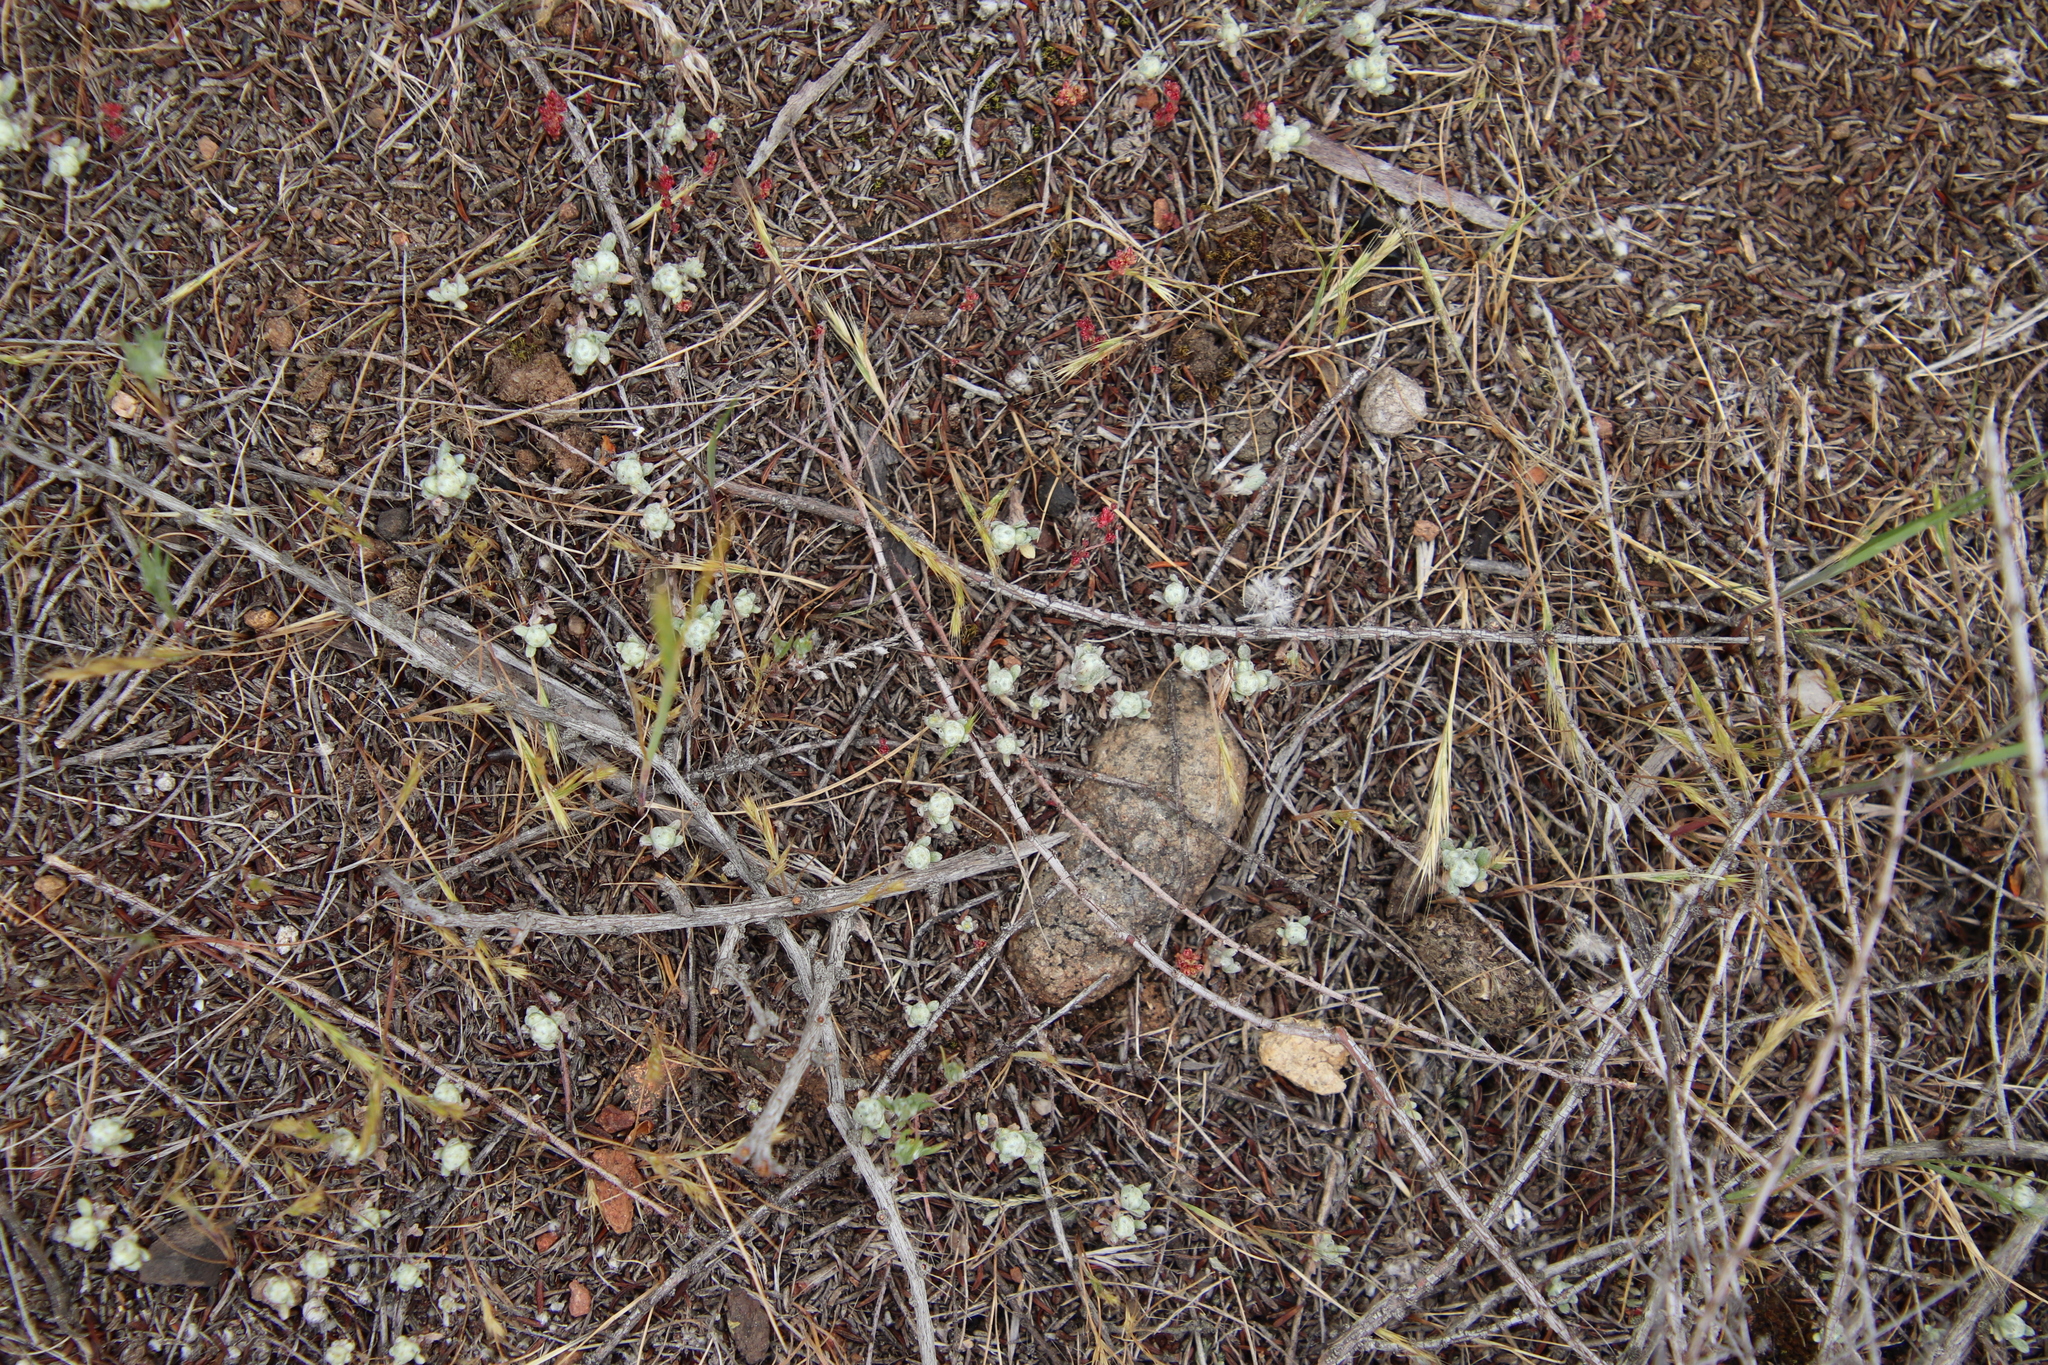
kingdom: Plantae
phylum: Tracheophyta
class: Magnoliopsida
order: Asterales
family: Asteraceae
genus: Bombycilaena
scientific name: Bombycilaena californica
